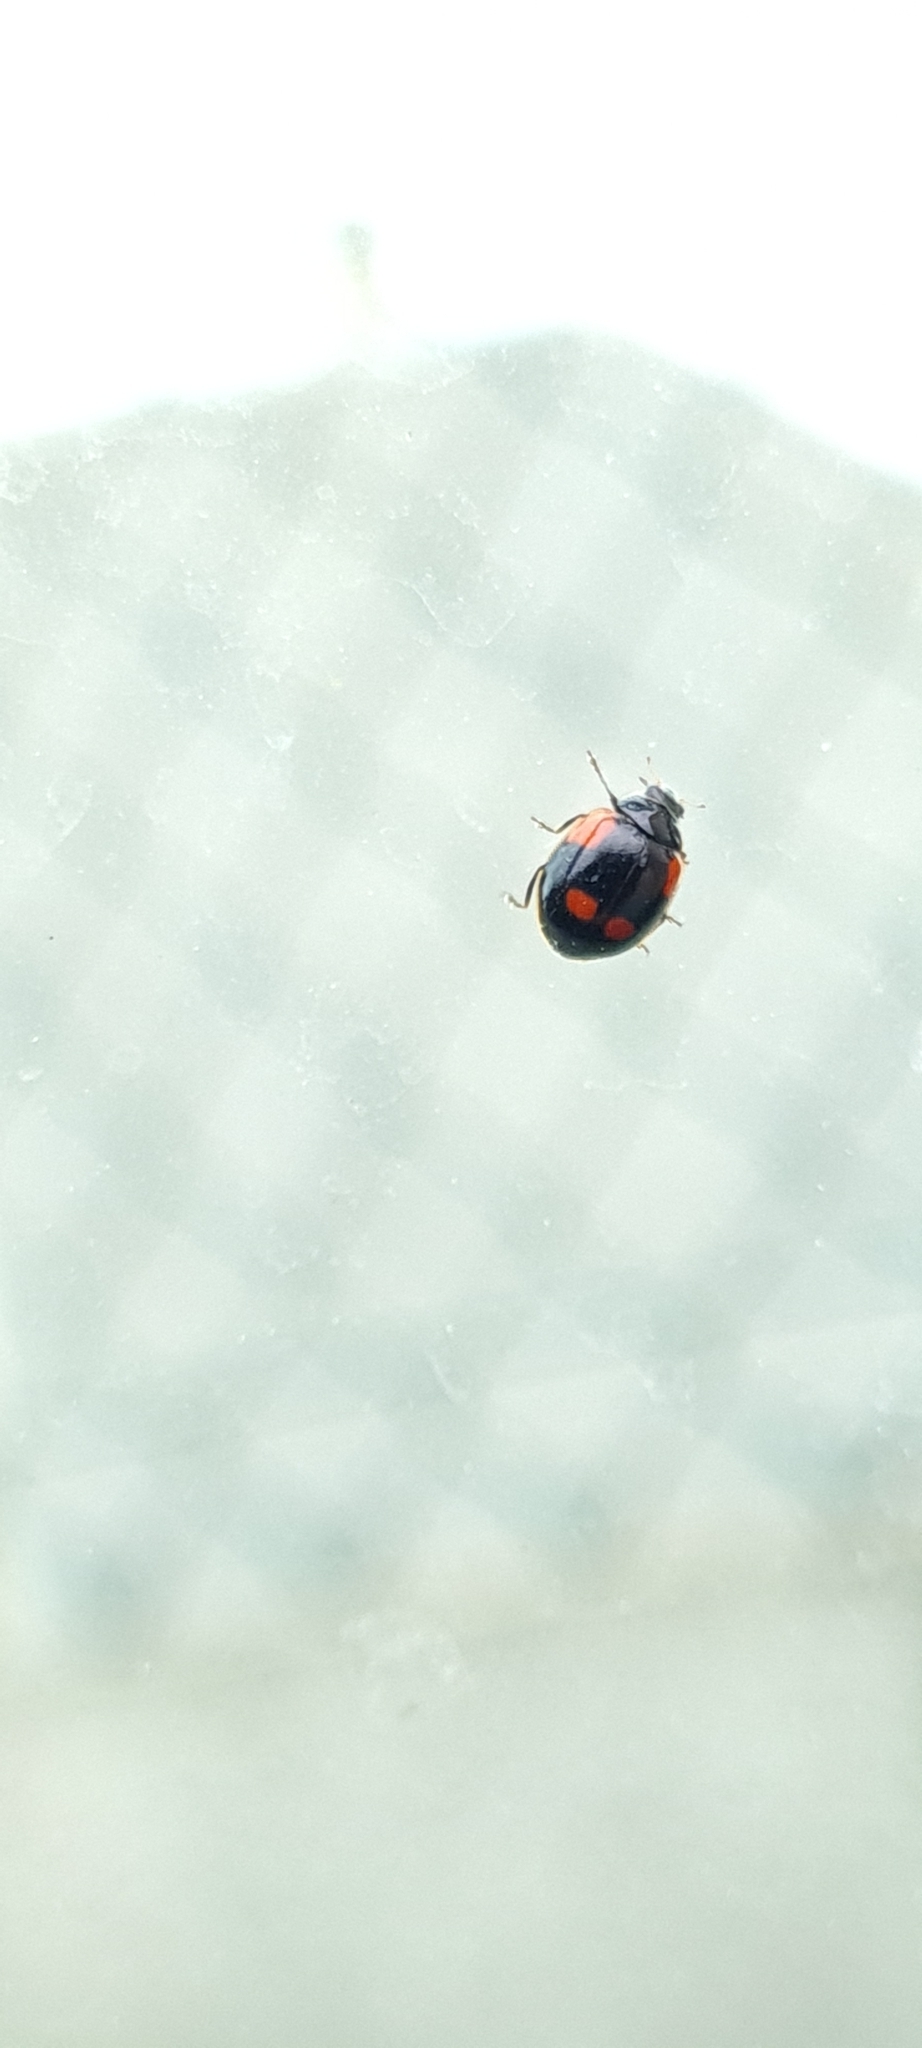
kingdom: Animalia
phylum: Arthropoda
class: Insecta
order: Coleoptera
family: Coccinellidae
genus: Adalia
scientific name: Adalia bipunctata
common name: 2-spot ladybird
